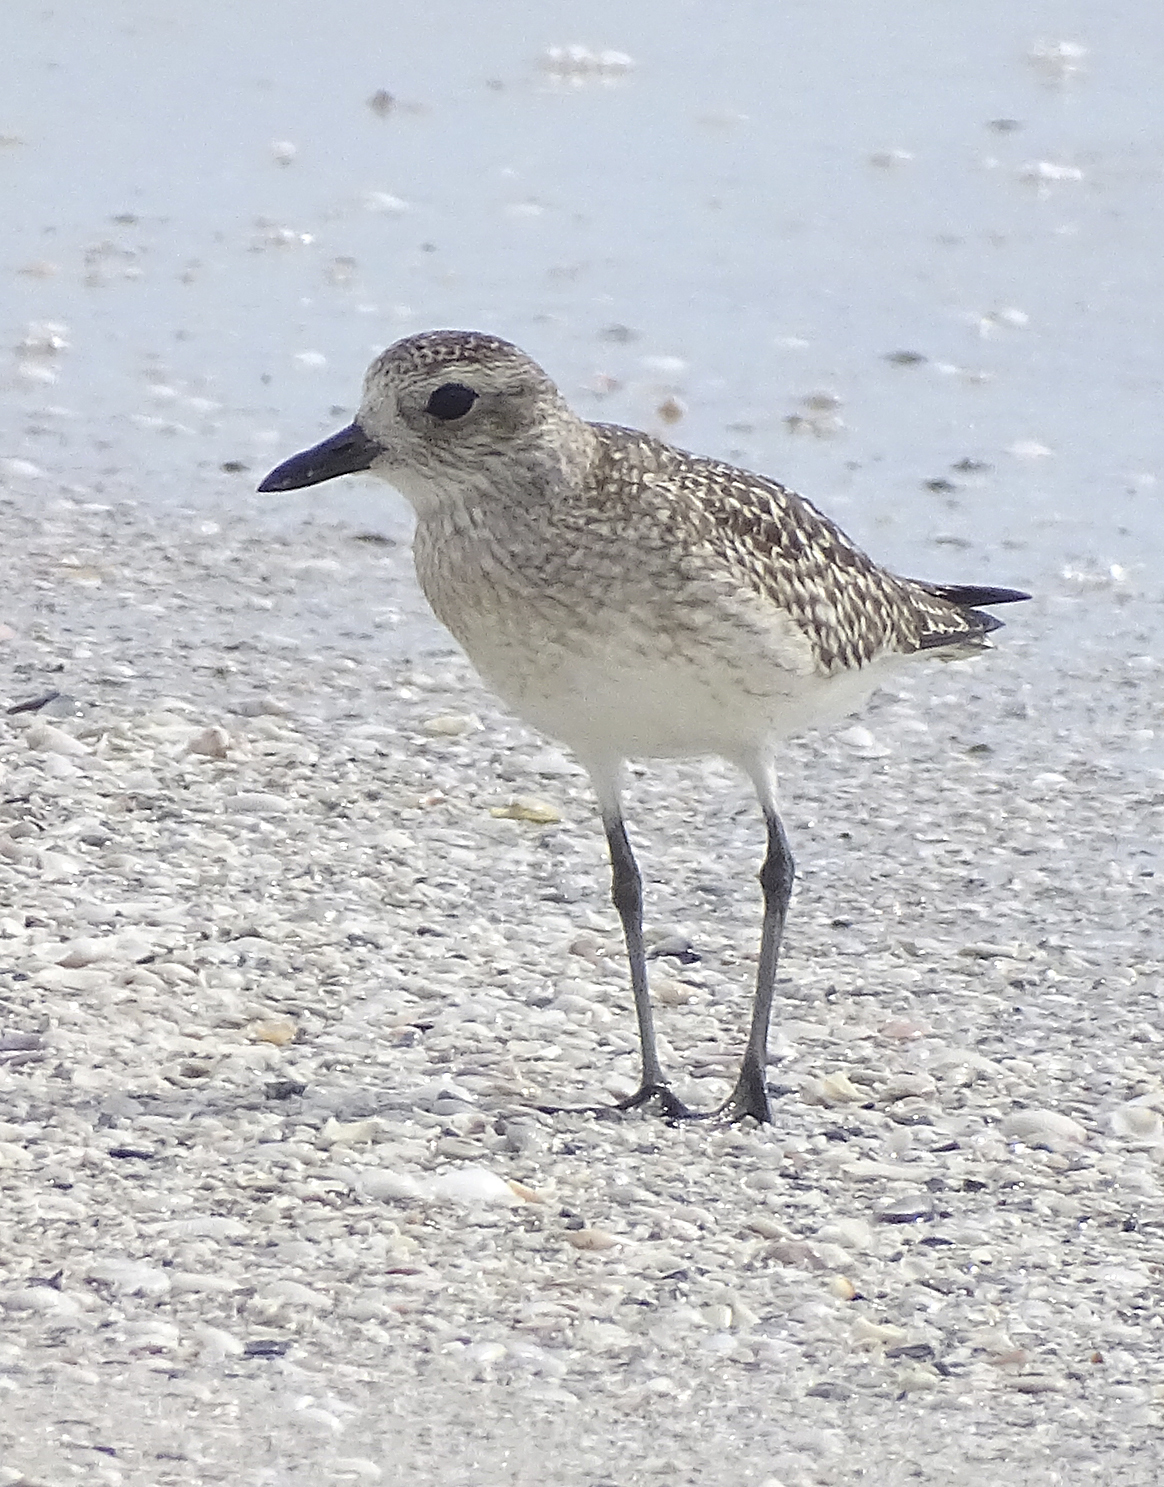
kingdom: Animalia
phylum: Chordata
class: Aves
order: Charadriiformes
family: Charadriidae
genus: Pluvialis
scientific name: Pluvialis squatarola
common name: Grey plover
